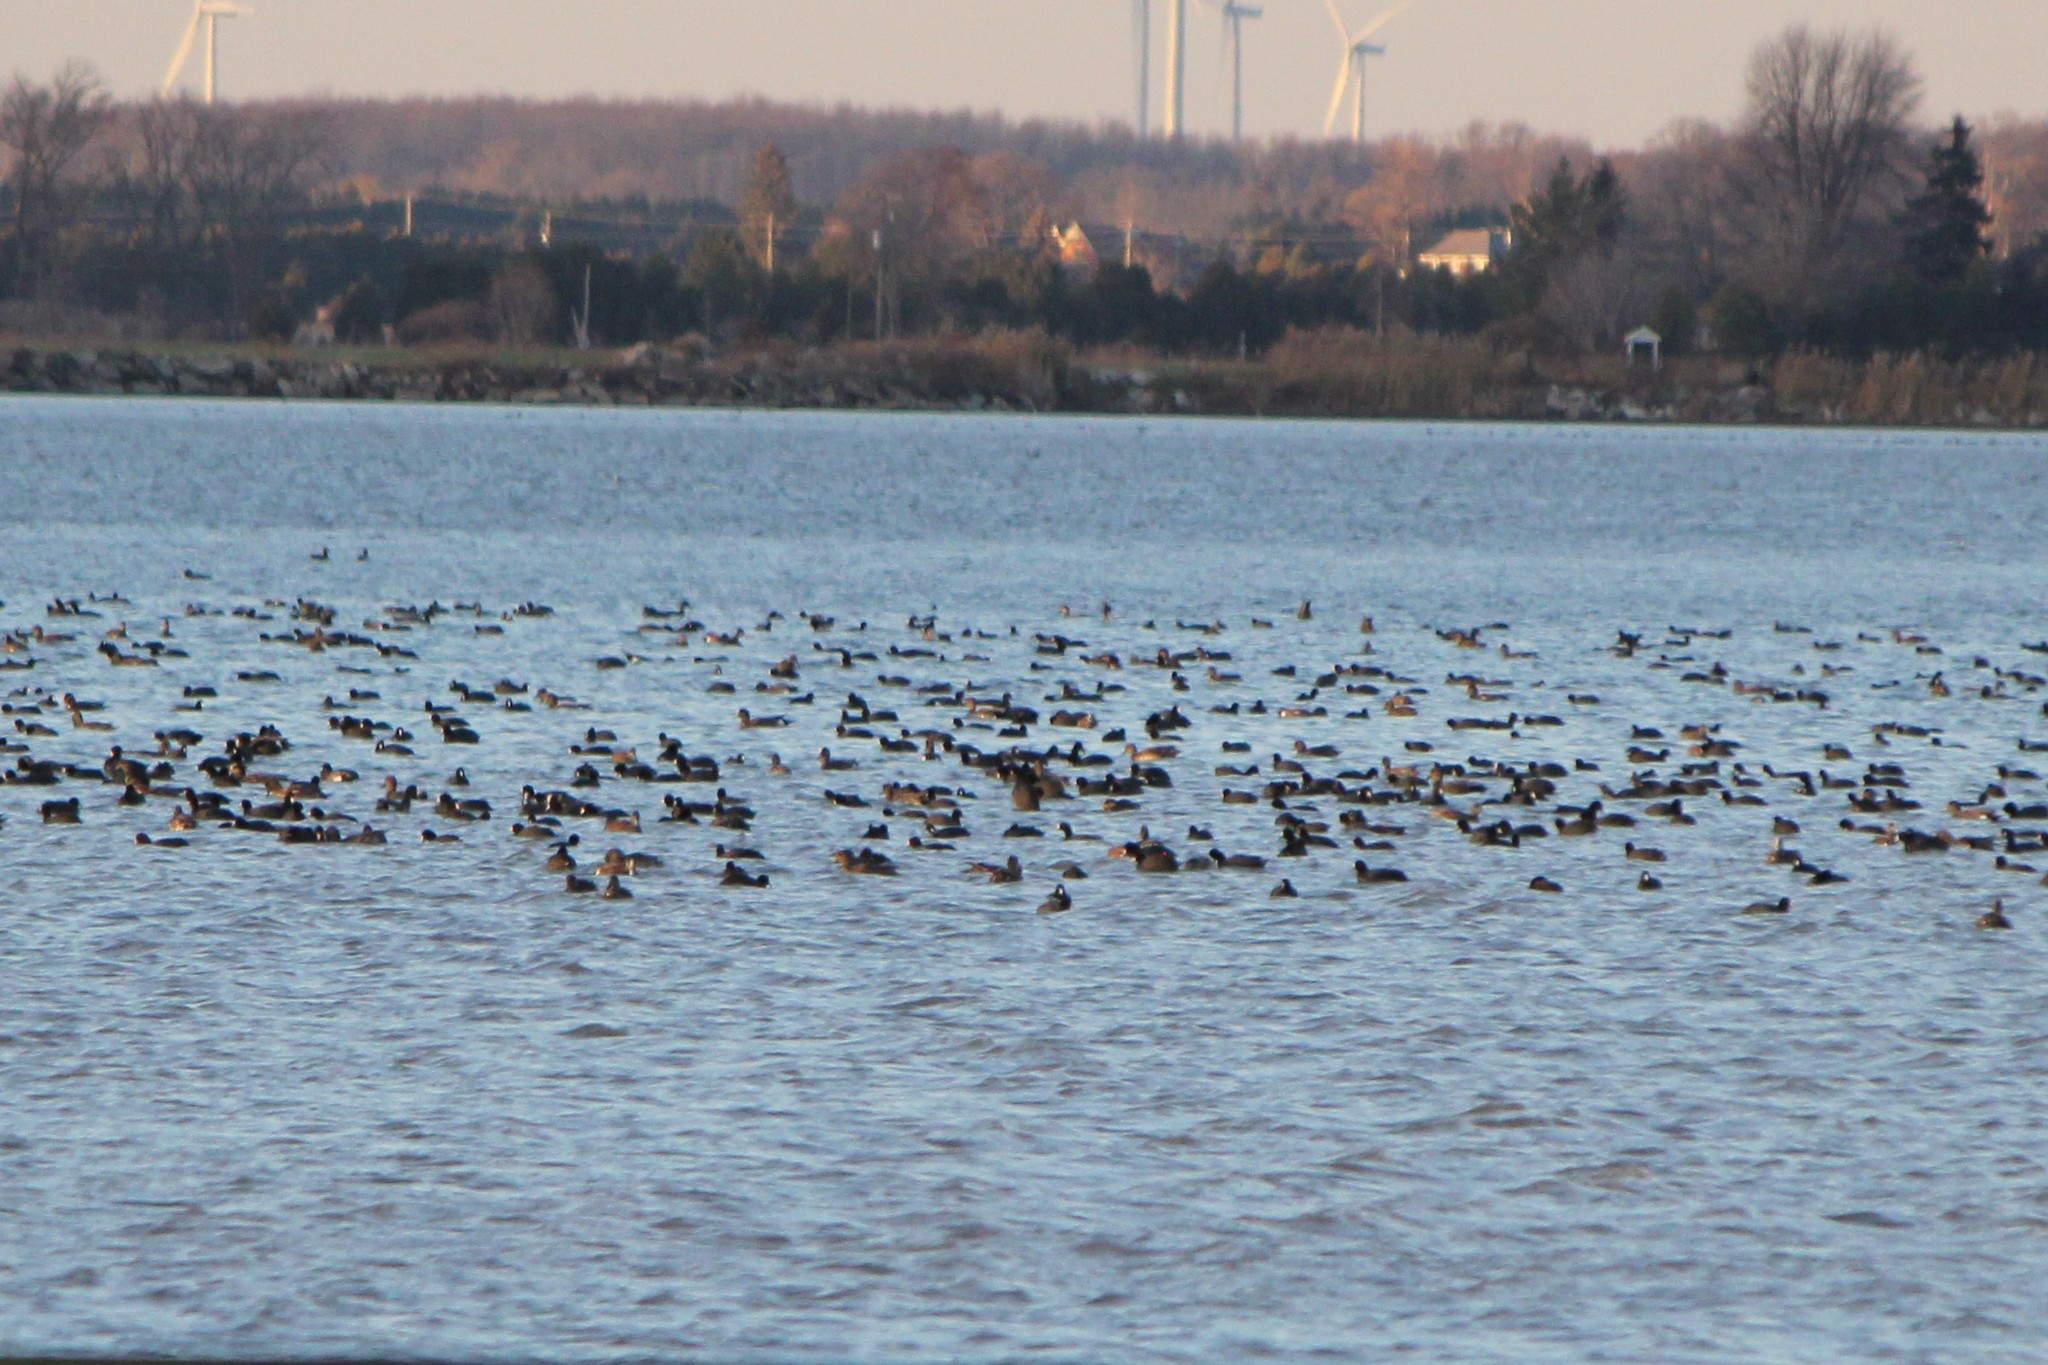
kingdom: Animalia
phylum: Chordata
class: Aves
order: Gruiformes
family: Rallidae
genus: Fulica
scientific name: Fulica americana
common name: American coot
